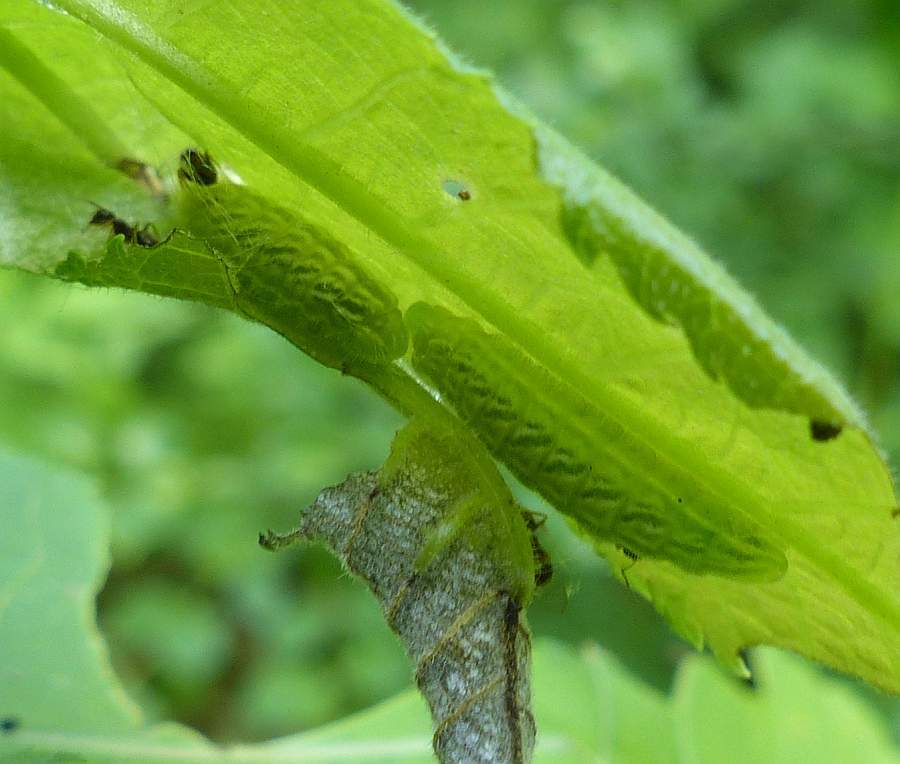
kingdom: Animalia
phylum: Arthropoda
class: Insecta
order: Lepidoptera
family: Lycaenidae
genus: Strymon
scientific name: Strymon caryaevorus
